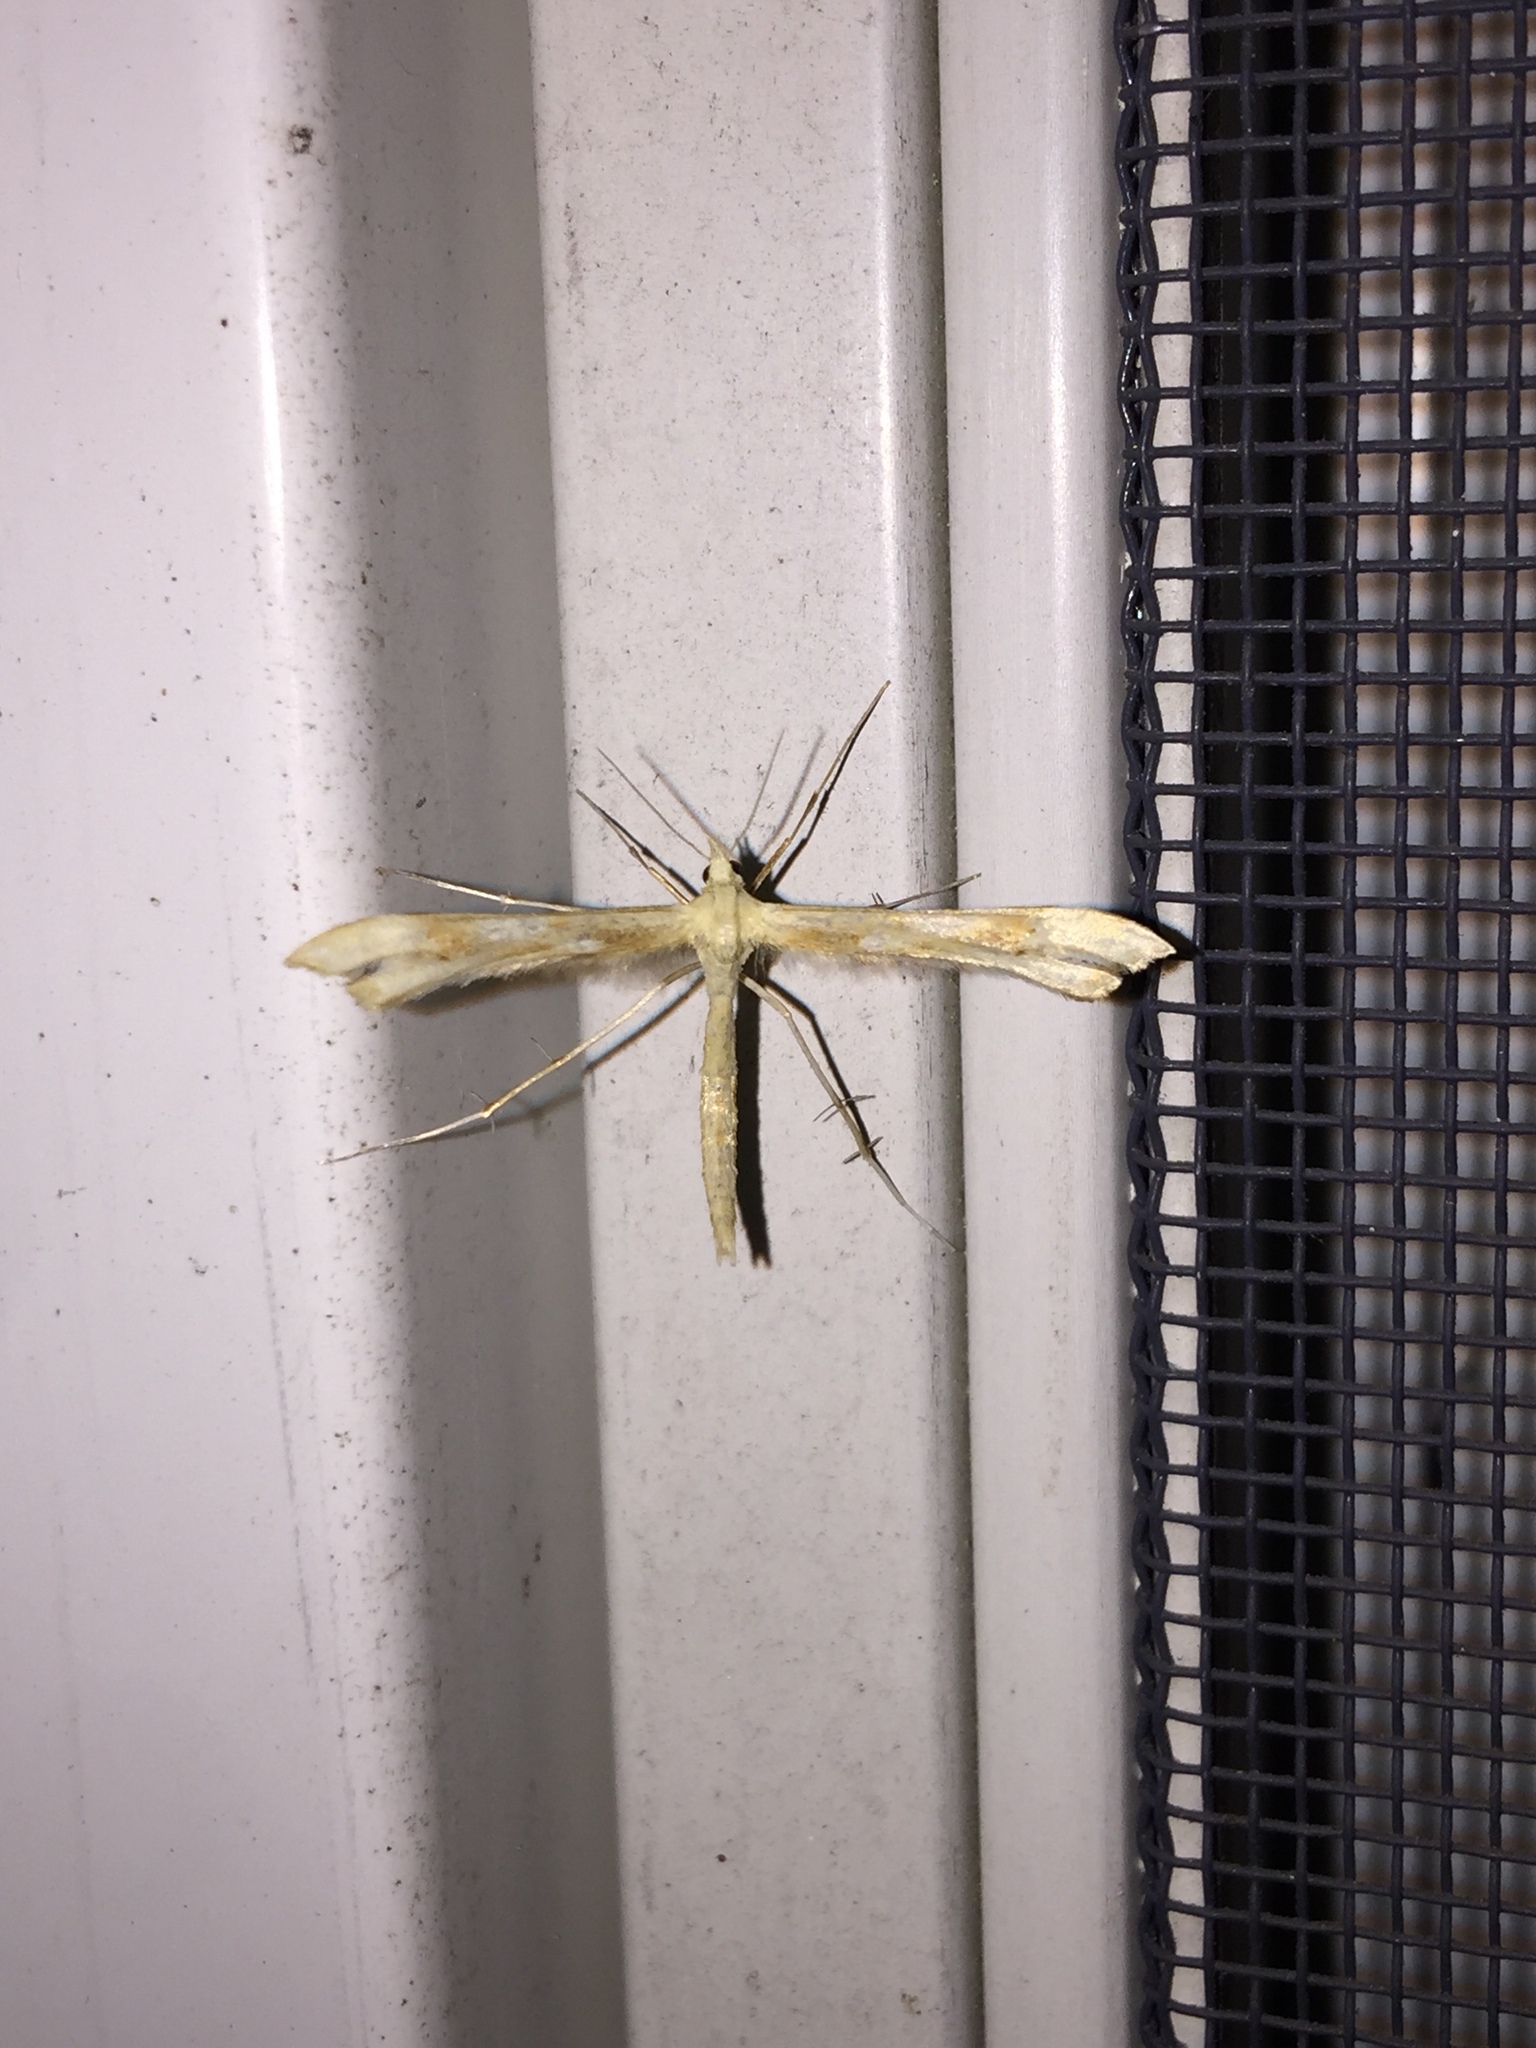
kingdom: Animalia
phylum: Arthropoda
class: Insecta
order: Lepidoptera
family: Pterophoridae
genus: Gillmeria
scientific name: Gillmeria pallidactyla
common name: Yarrow plume
